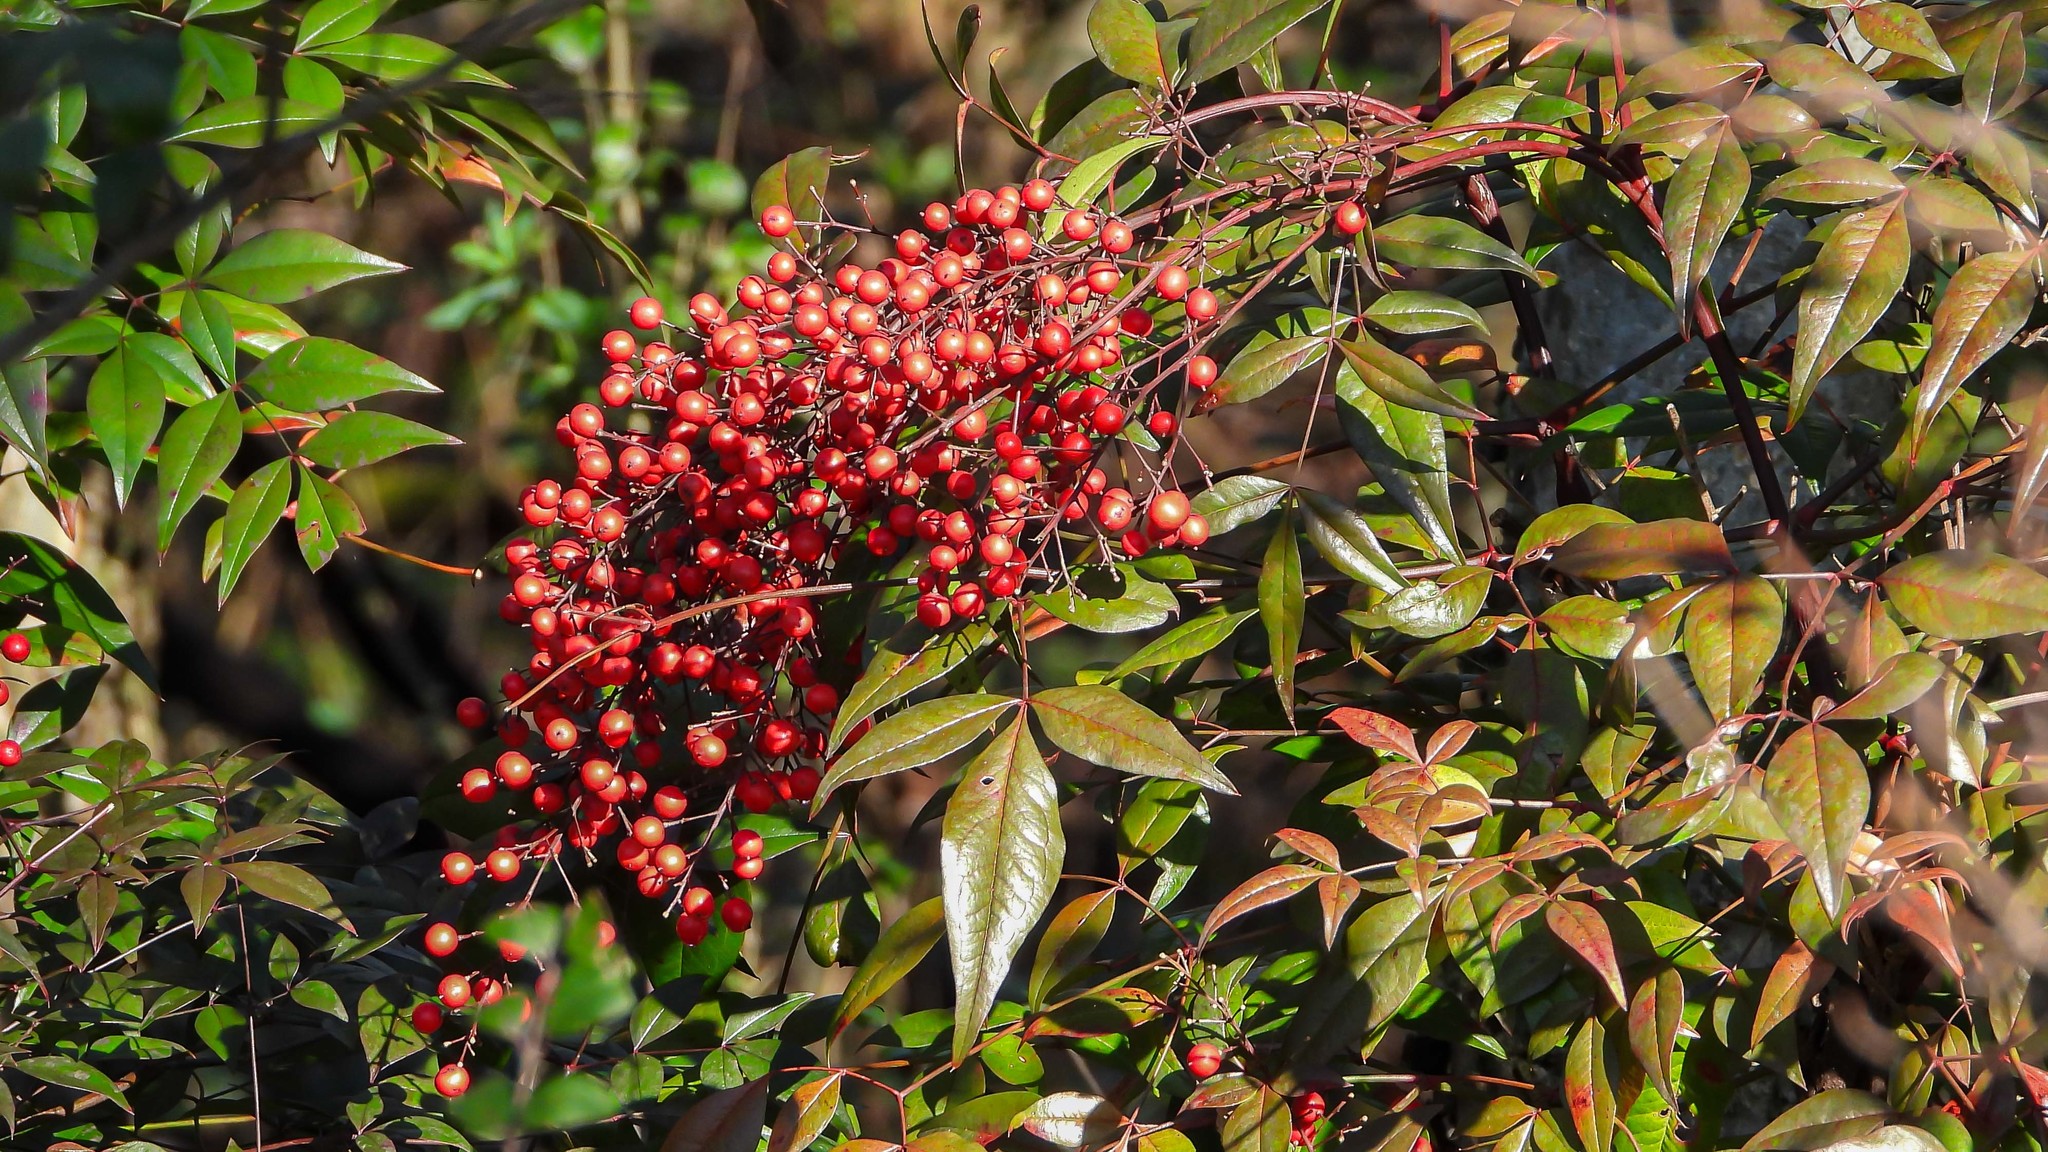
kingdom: Plantae
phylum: Tracheophyta
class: Magnoliopsida
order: Ranunculales
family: Berberidaceae
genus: Nandina
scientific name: Nandina domestica
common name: Sacred bamboo
